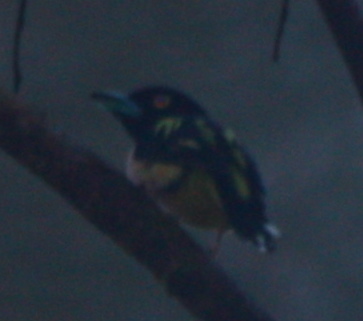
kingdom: Animalia
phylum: Chordata
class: Aves
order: Passeriformes
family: Eurylaimidae
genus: Eurylaimus
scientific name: Eurylaimus ochromalus
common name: Black-and-yellow broadbill
